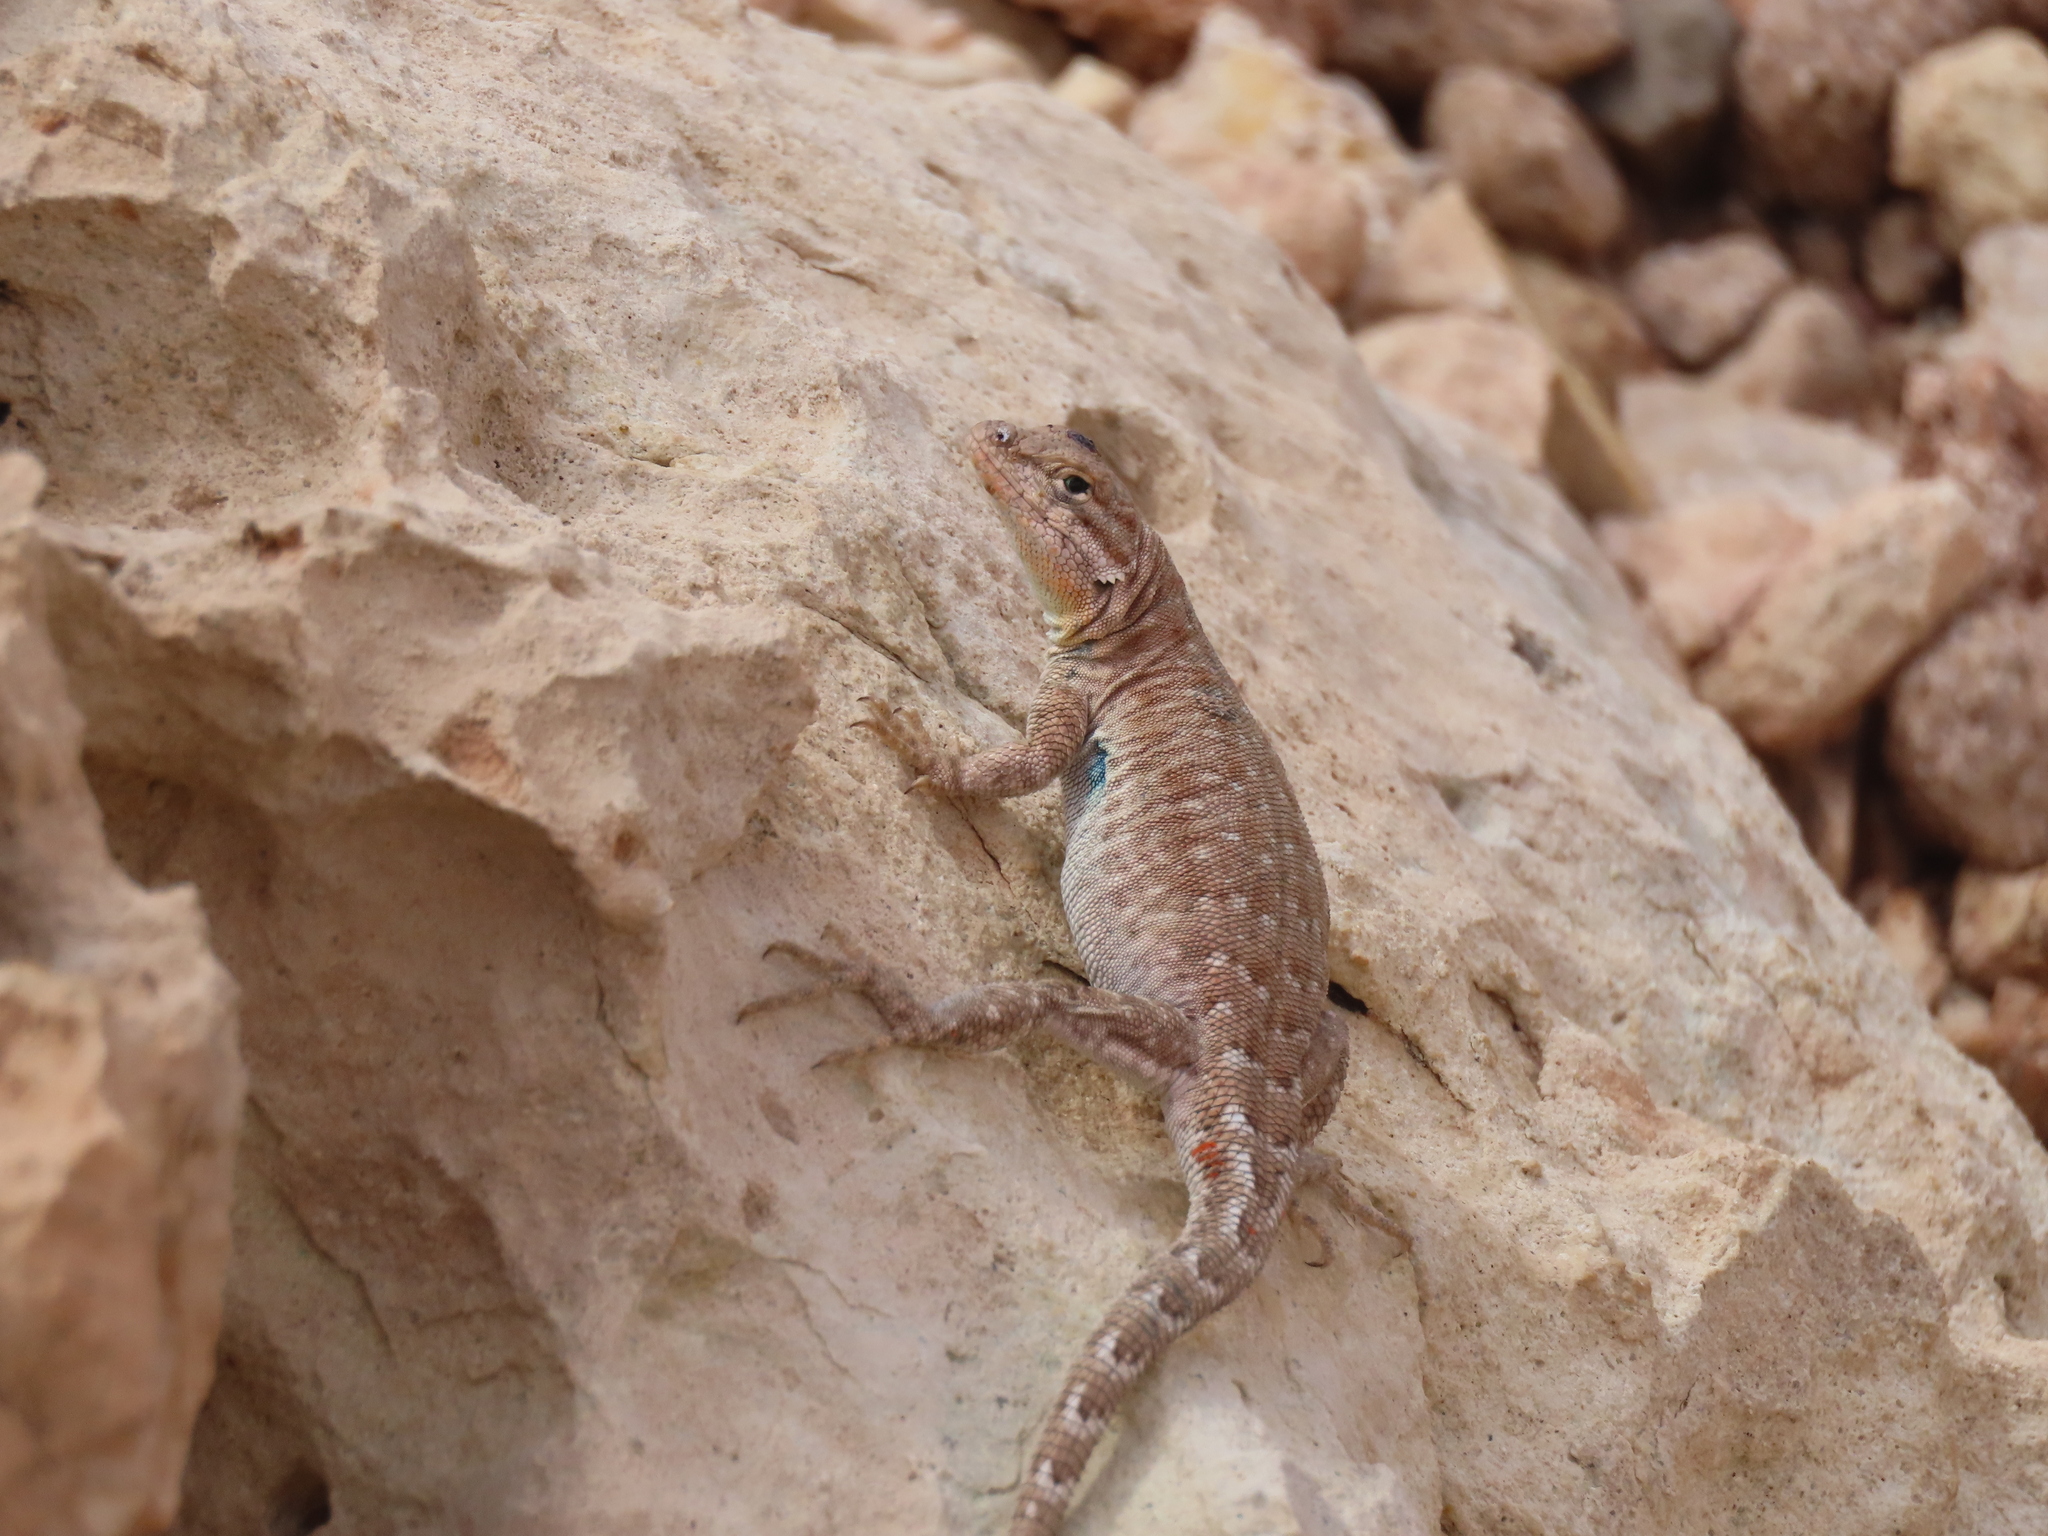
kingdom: Animalia
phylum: Chordata
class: Squamata
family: Phrynosomatidae
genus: Uta
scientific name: Uta stansburiana
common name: Side-blotched lizard
